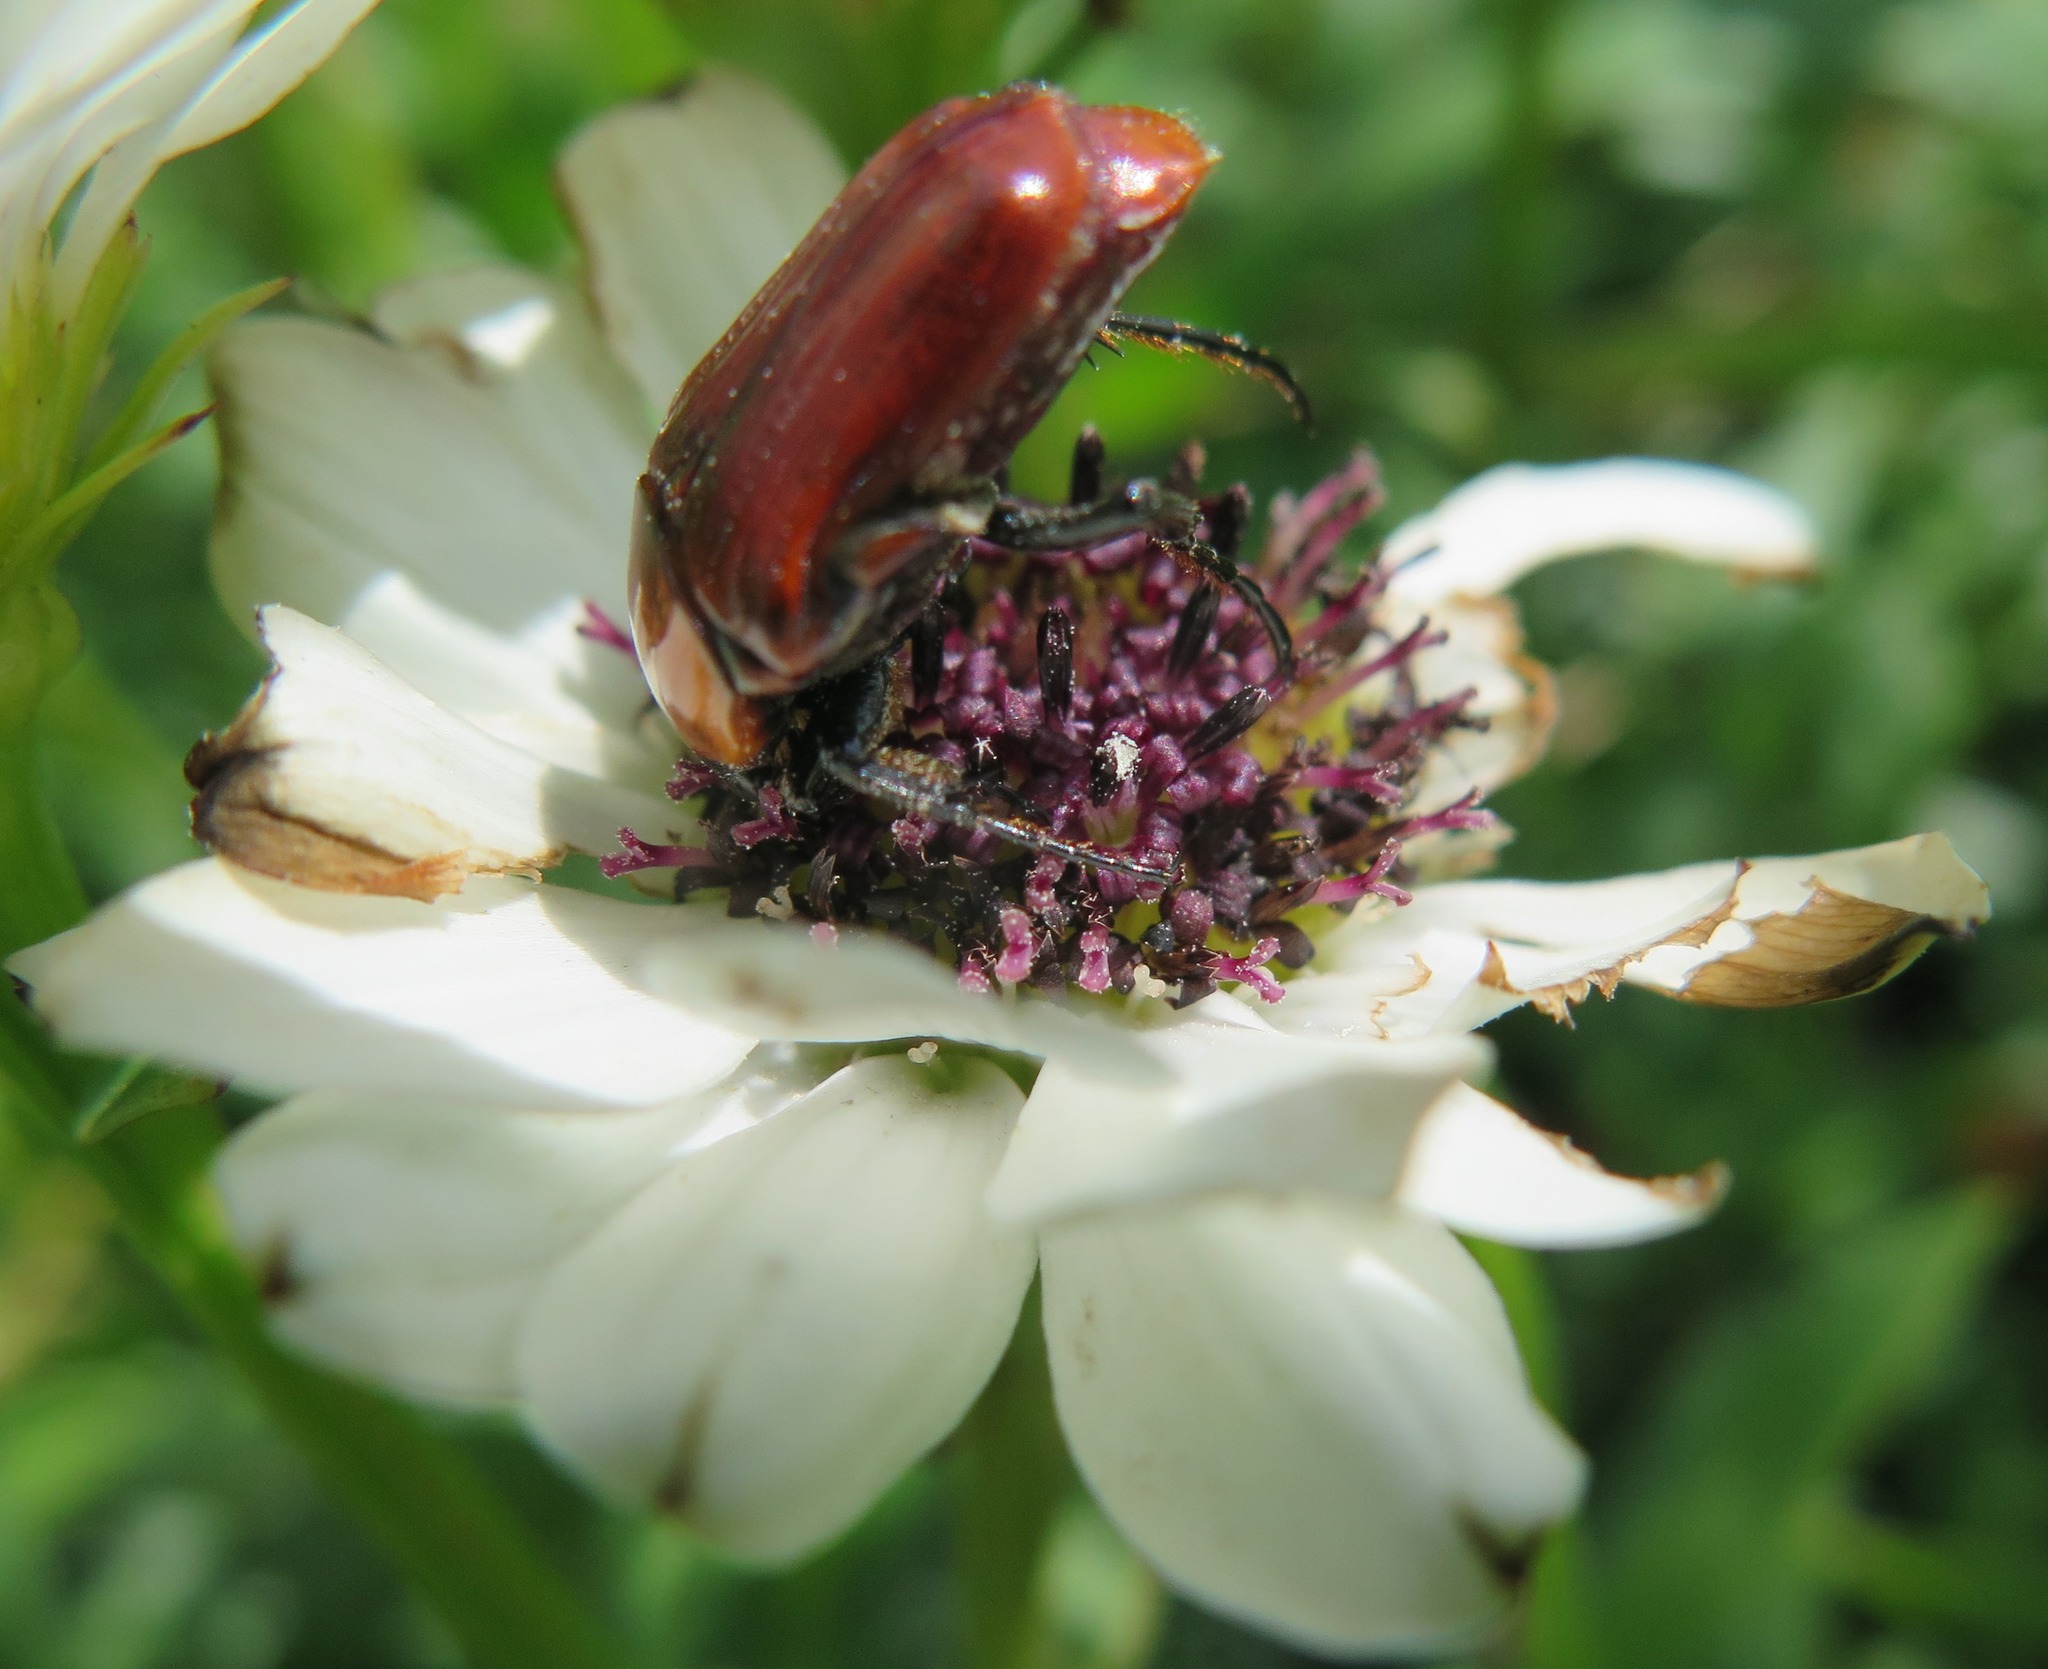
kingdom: Plantae
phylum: Tracheophyta
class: Magnoliopsida
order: Caryophyllales
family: Polygonaceae
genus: Oxygonum
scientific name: Oxygonum dregeanum
